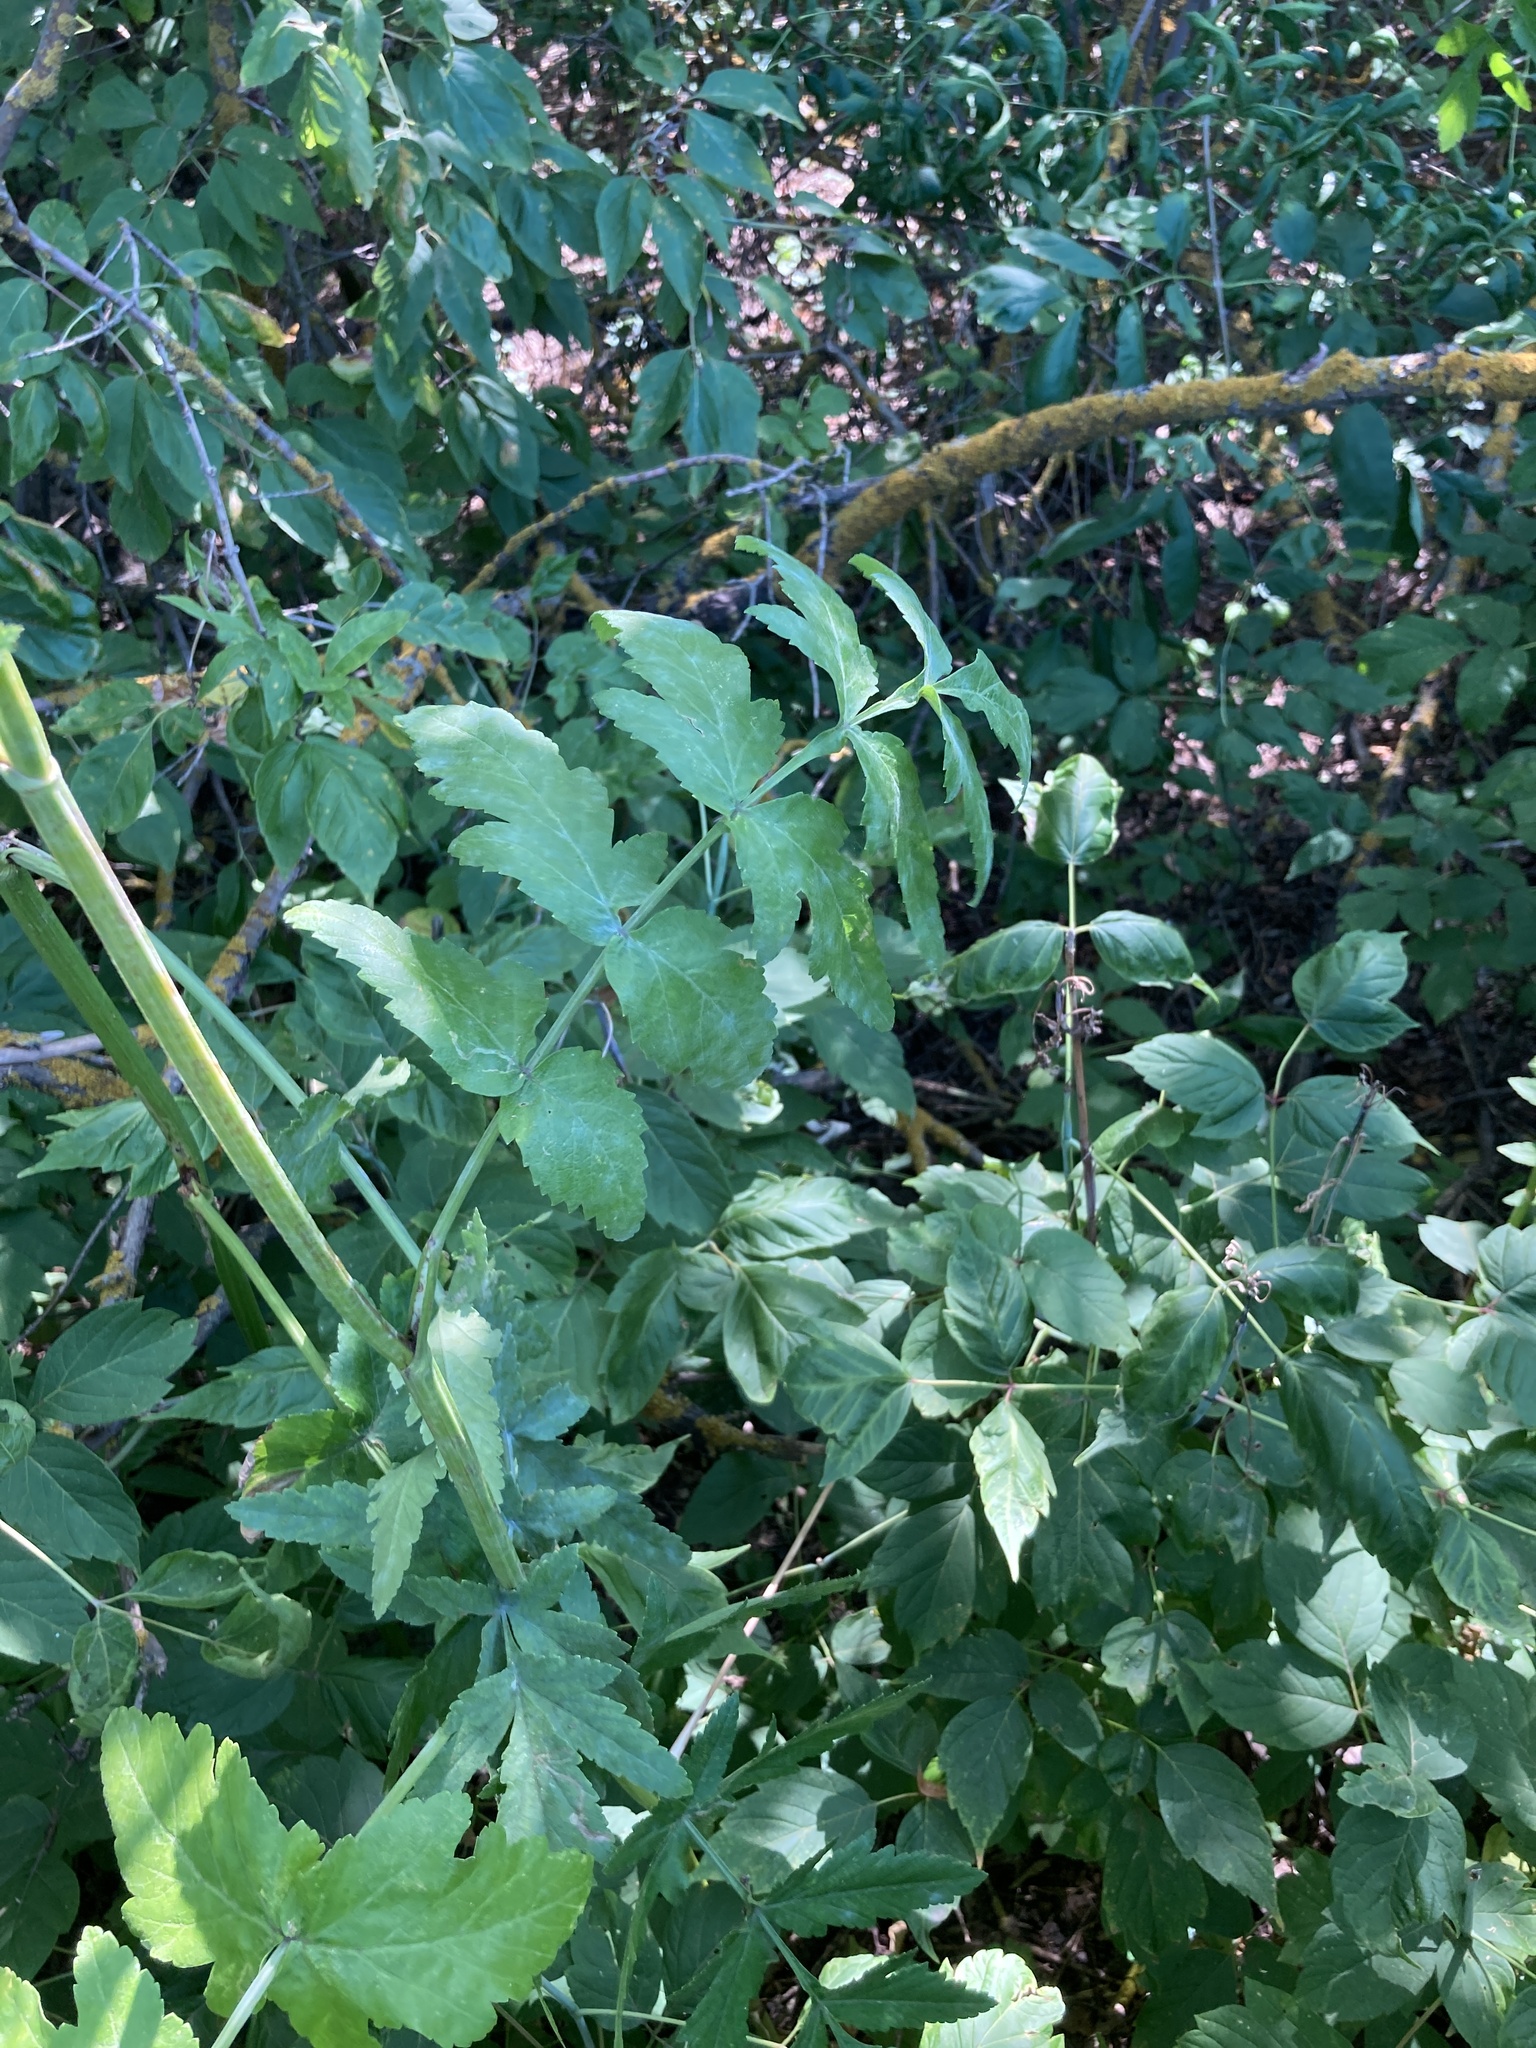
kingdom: Plantae
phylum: Tracheophyta
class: Magnoliopsida
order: Apiales
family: Apiaceae
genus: Pastinaca
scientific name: Pastinaca sativa
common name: Wild parsnip
